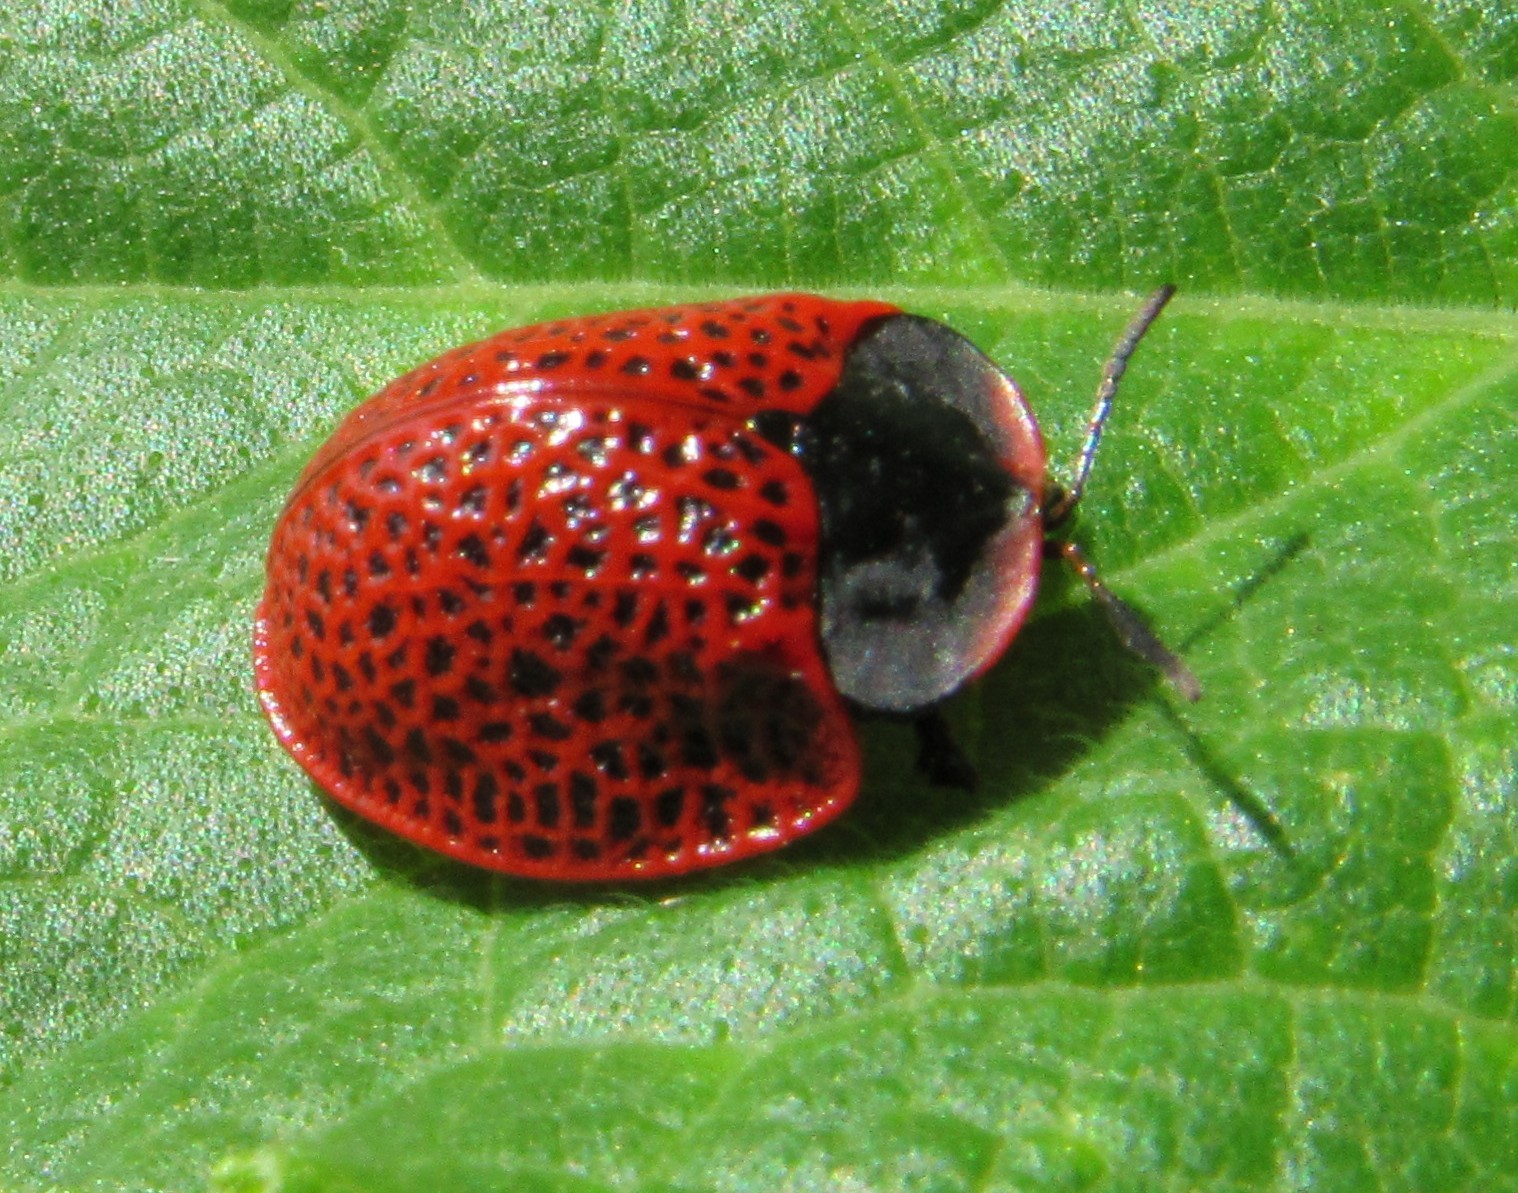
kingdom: Animalia
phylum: Arthropoda
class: Insecta
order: Coleoptera
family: Chrysomelidae
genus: Botanochara
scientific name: Botanochara impressa
